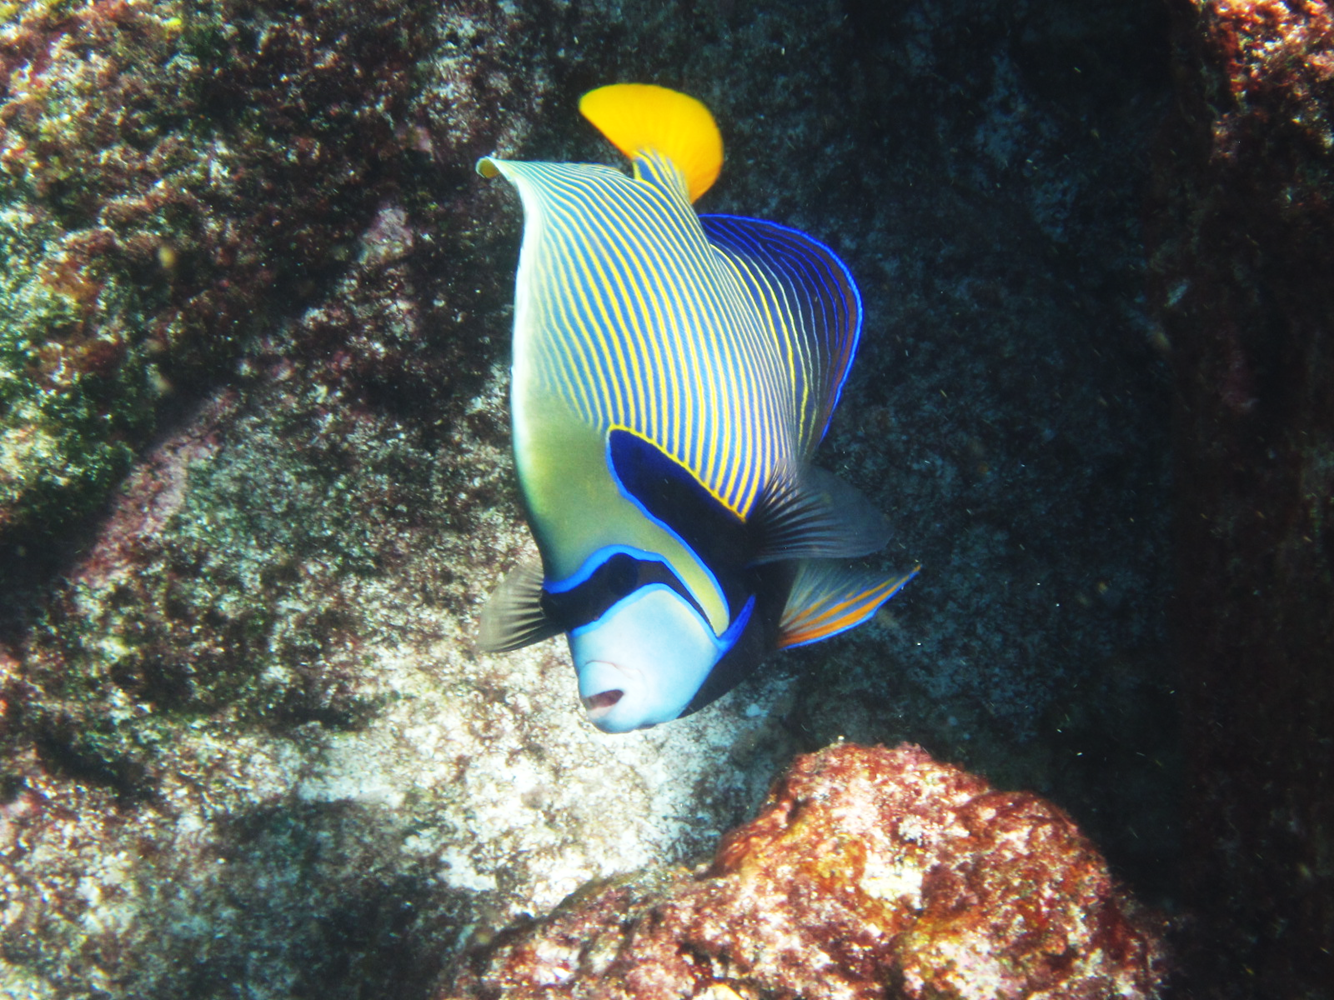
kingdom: Animalia
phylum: Chordata
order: Perciformes
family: Pomacanthidae
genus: Pomacanthus
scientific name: Pomacanthus imperator
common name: Emperor angelfish
